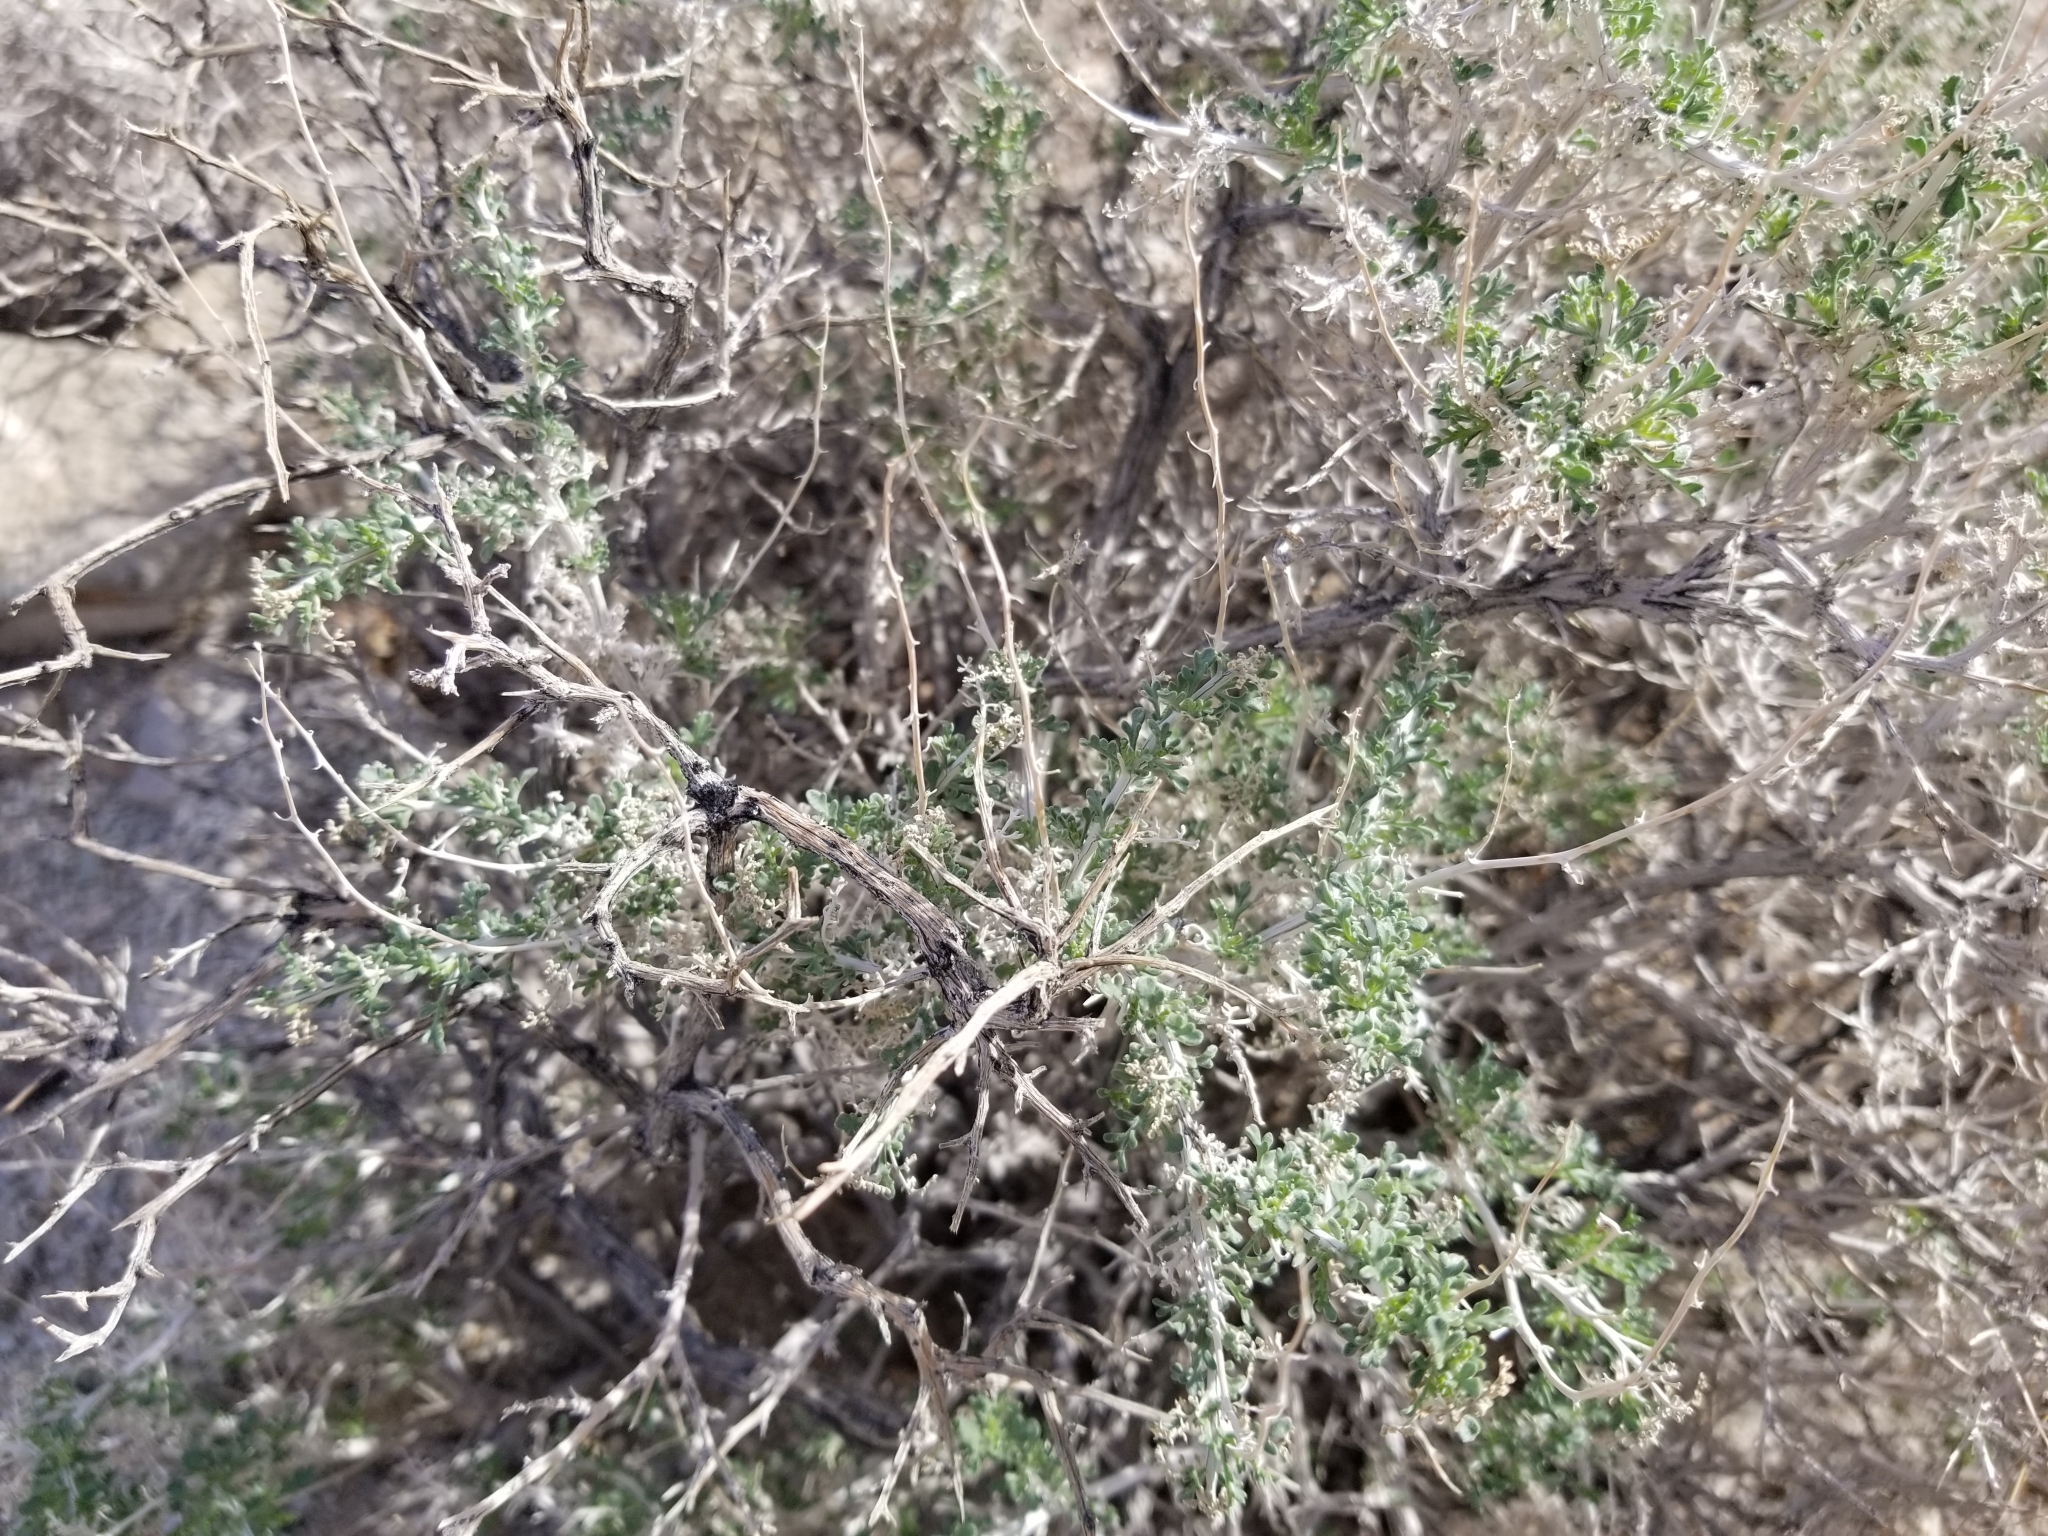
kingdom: Plantae
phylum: Tracheophyta
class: Magnoliopsida
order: Asterales
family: Asteraceae
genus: Ambrosia
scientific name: Ambrosia dumosa
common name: Bur-sage
